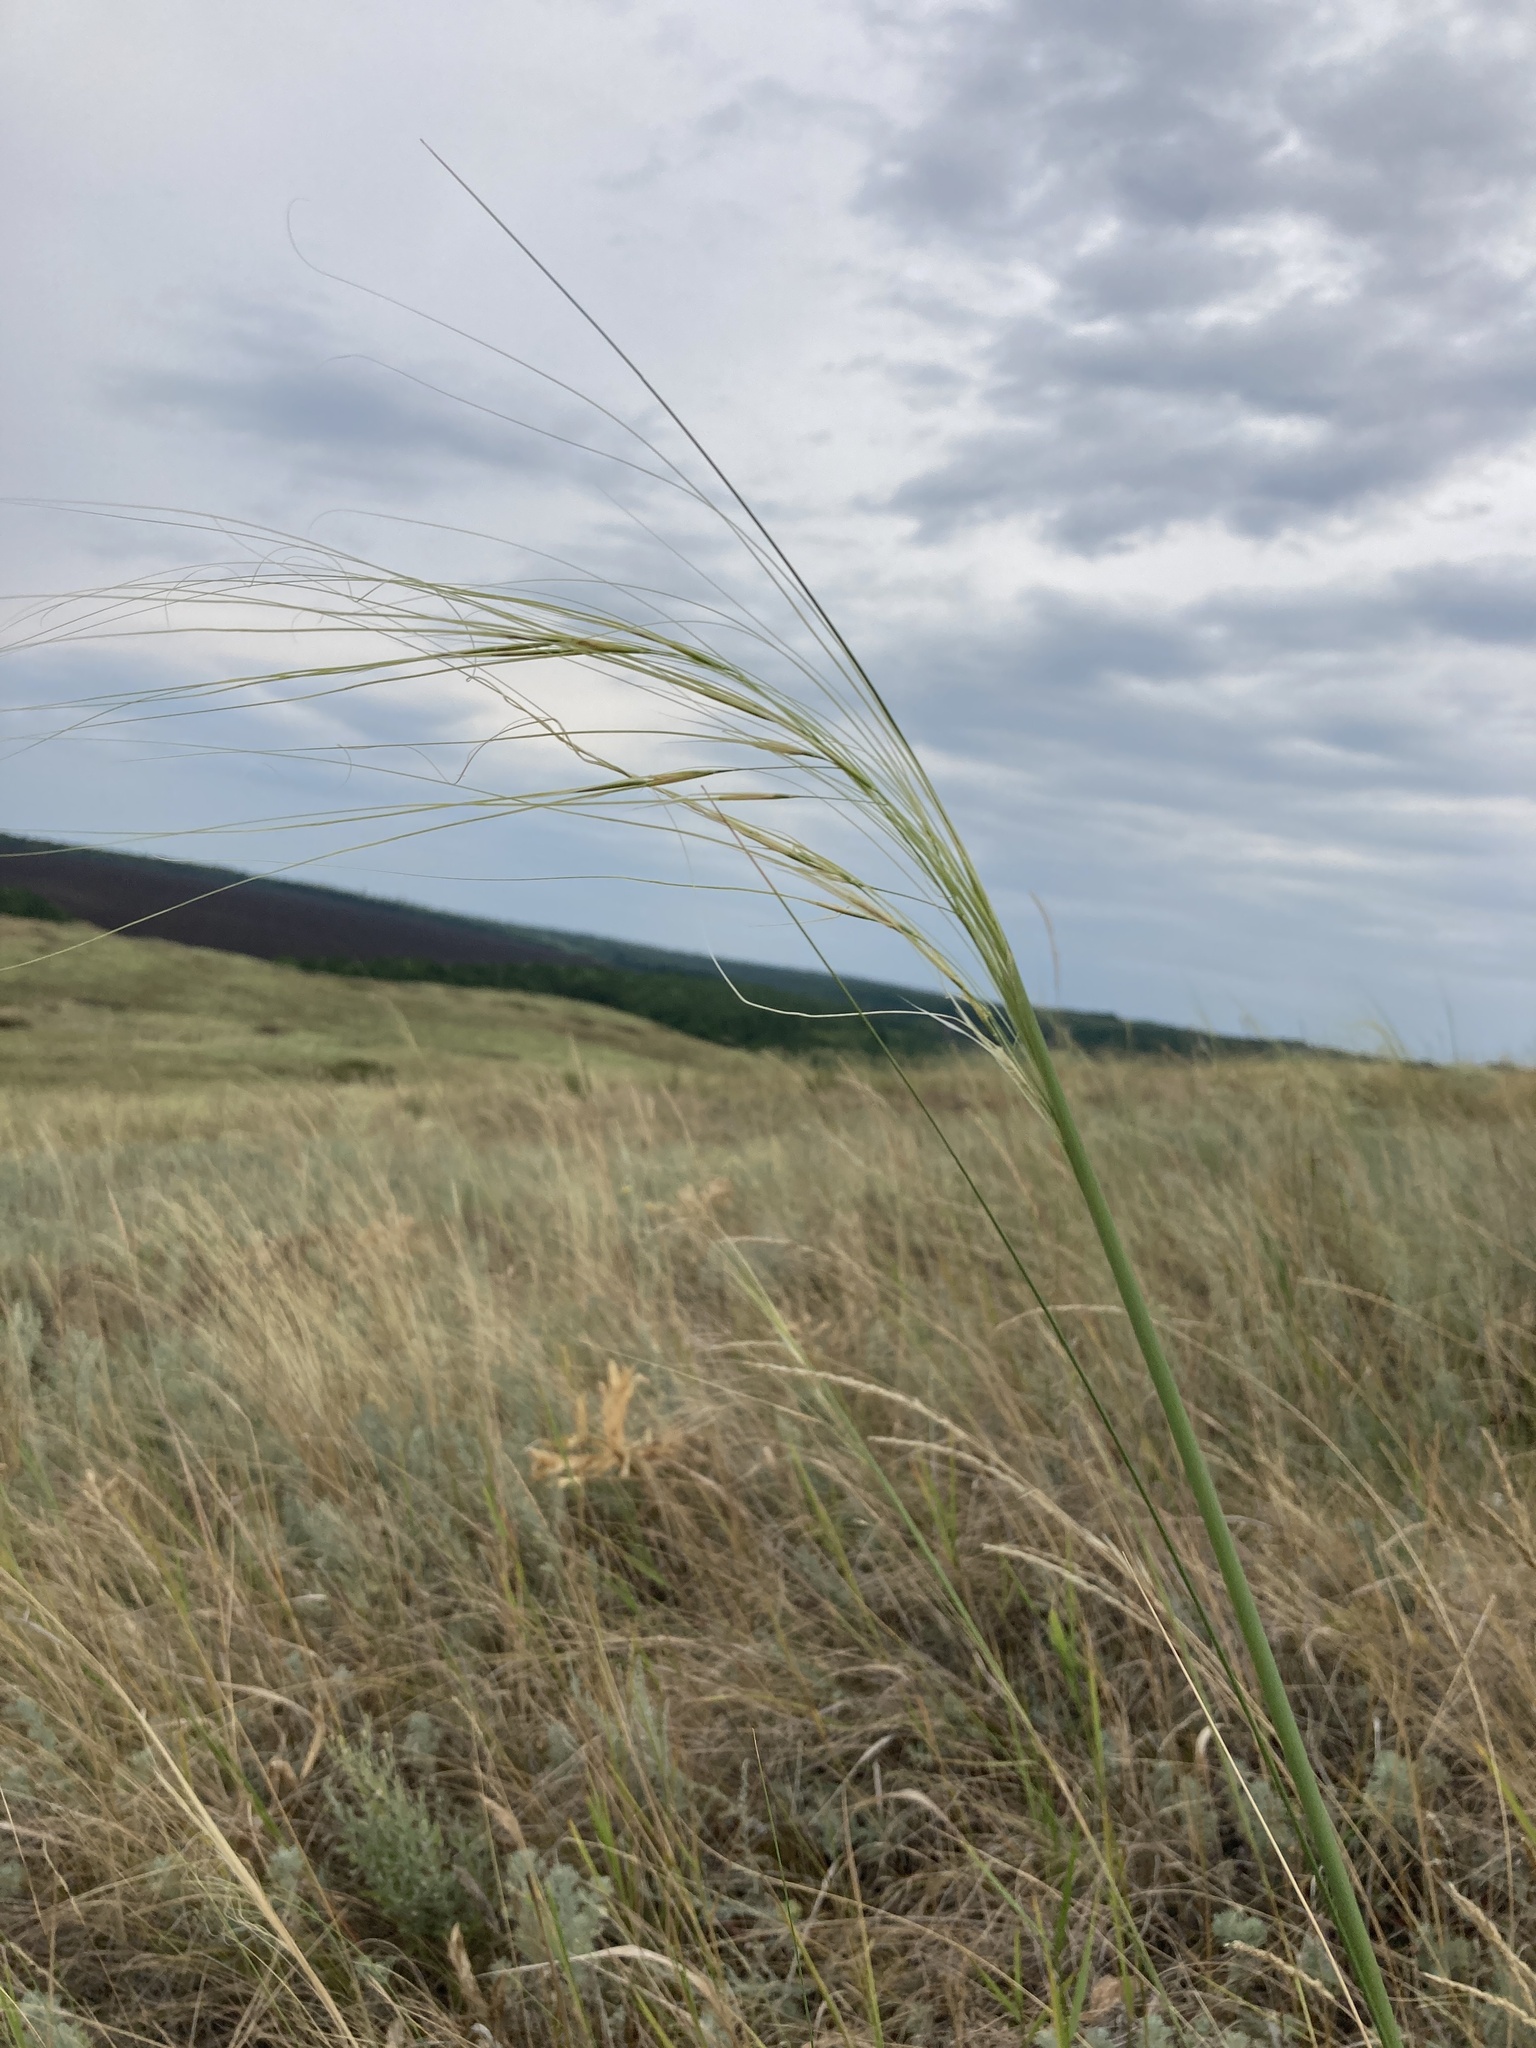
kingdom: Plantae
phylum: Tracheophyta
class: Liliopsida
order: Poales
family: Poaceae
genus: Stipa
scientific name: Stipa capillata
